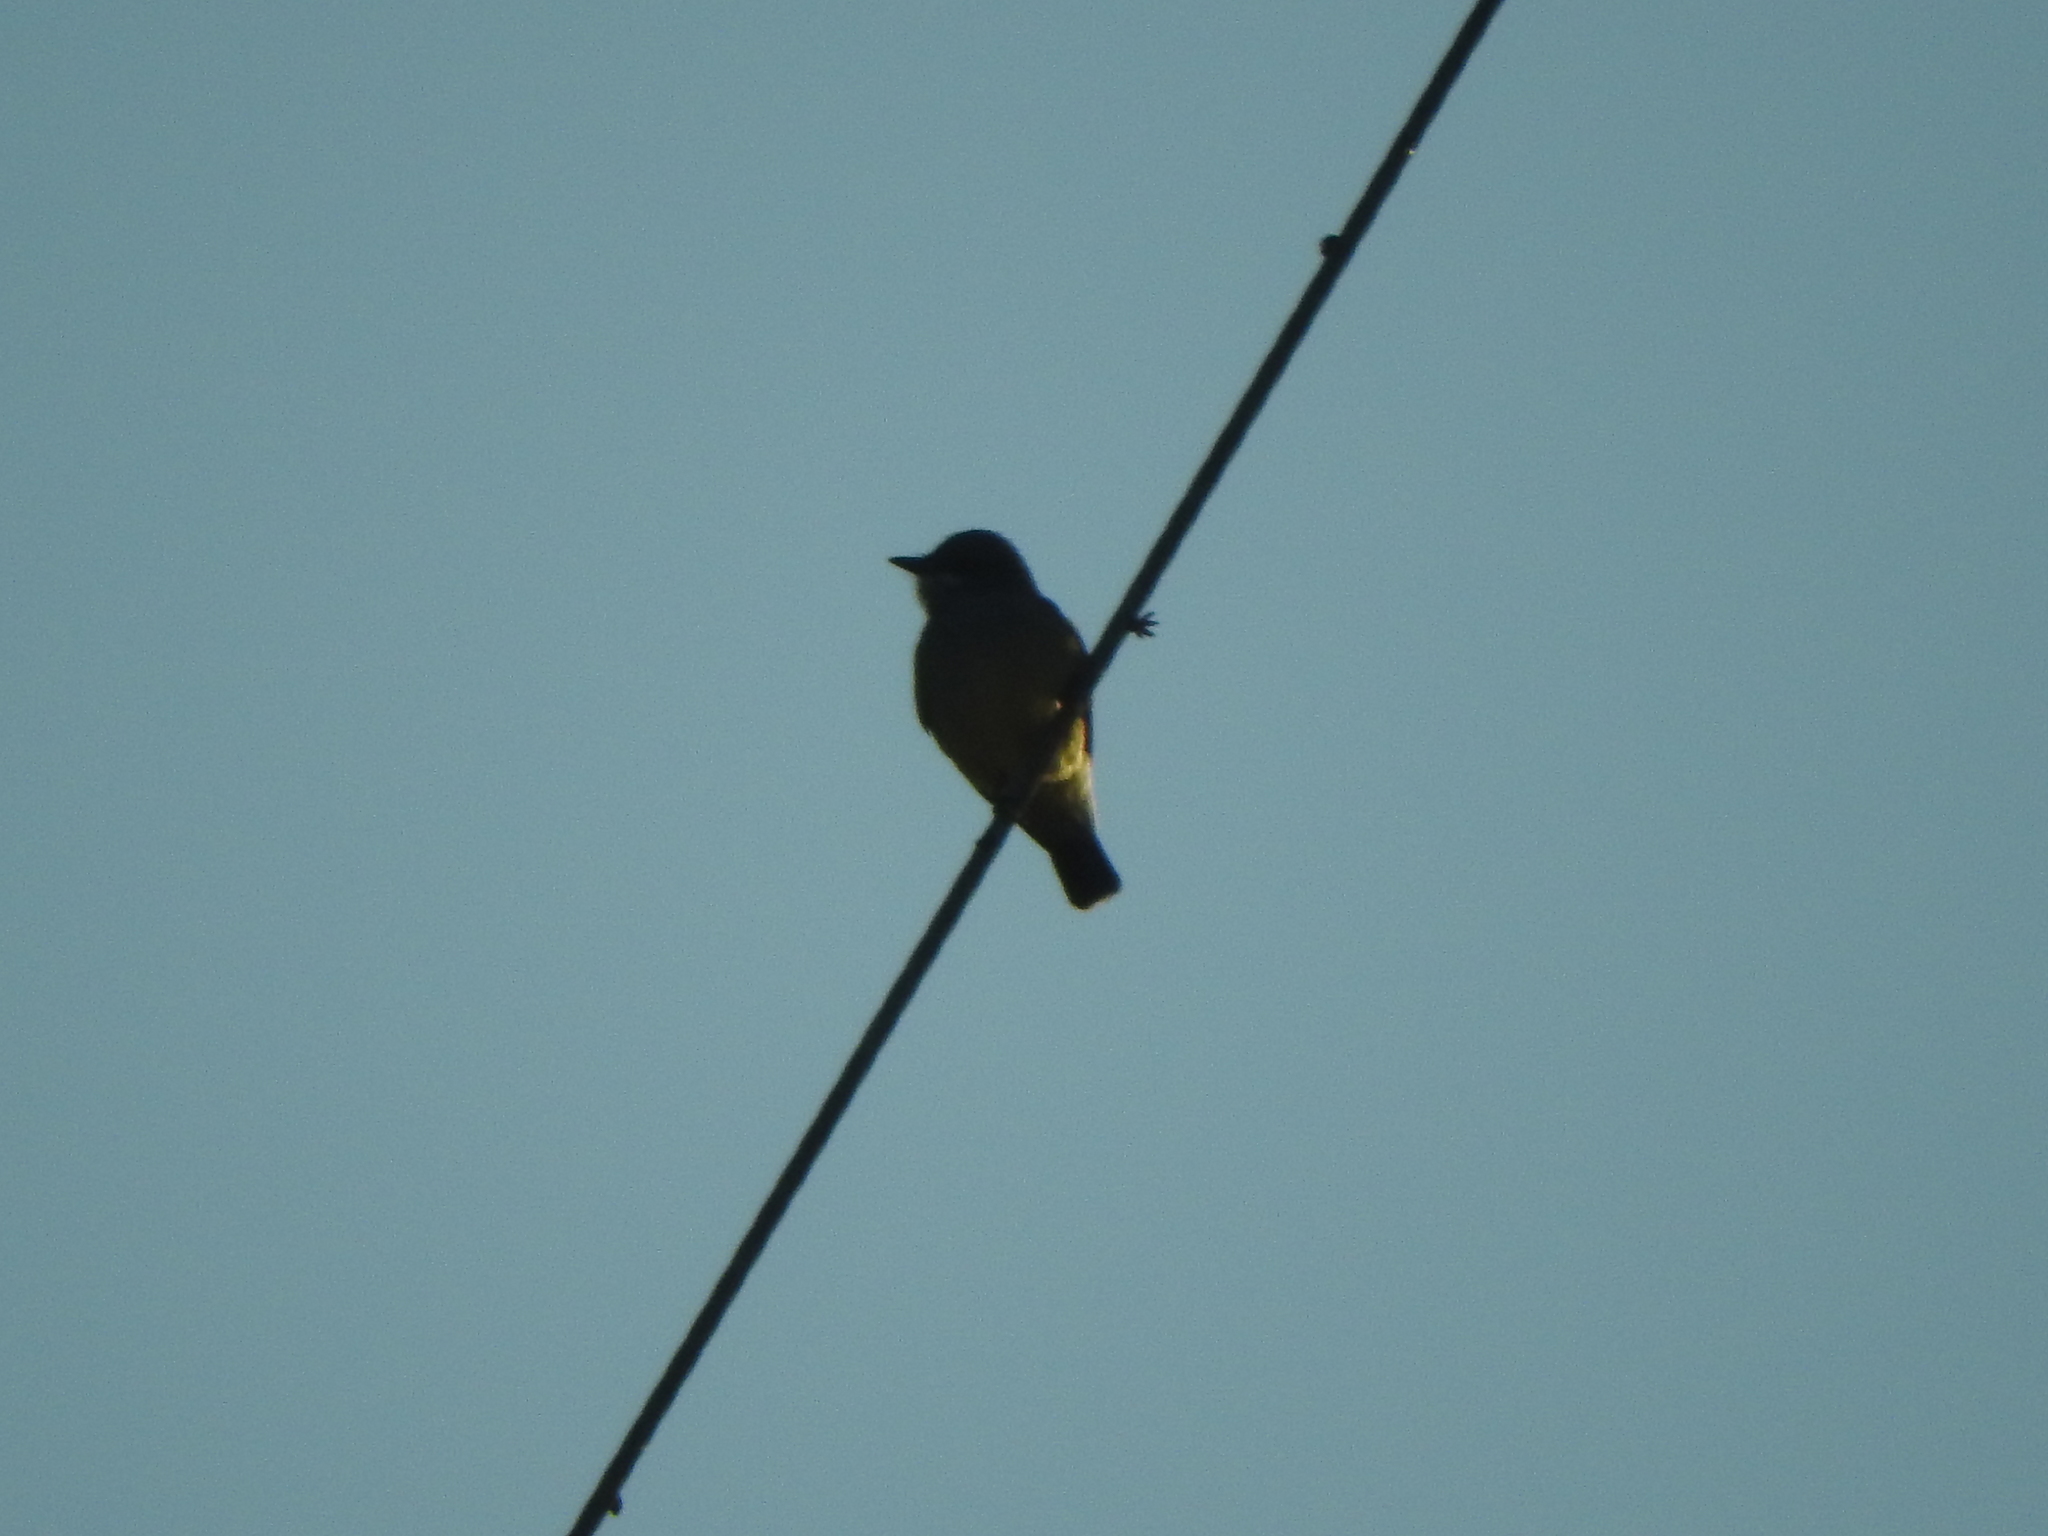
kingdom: Animalia
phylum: Chordata
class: Aves
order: Passeriformes
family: Tyrannidae
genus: Tyrannus
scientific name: Tyrannus vociferans
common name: Cassin's kingbird
